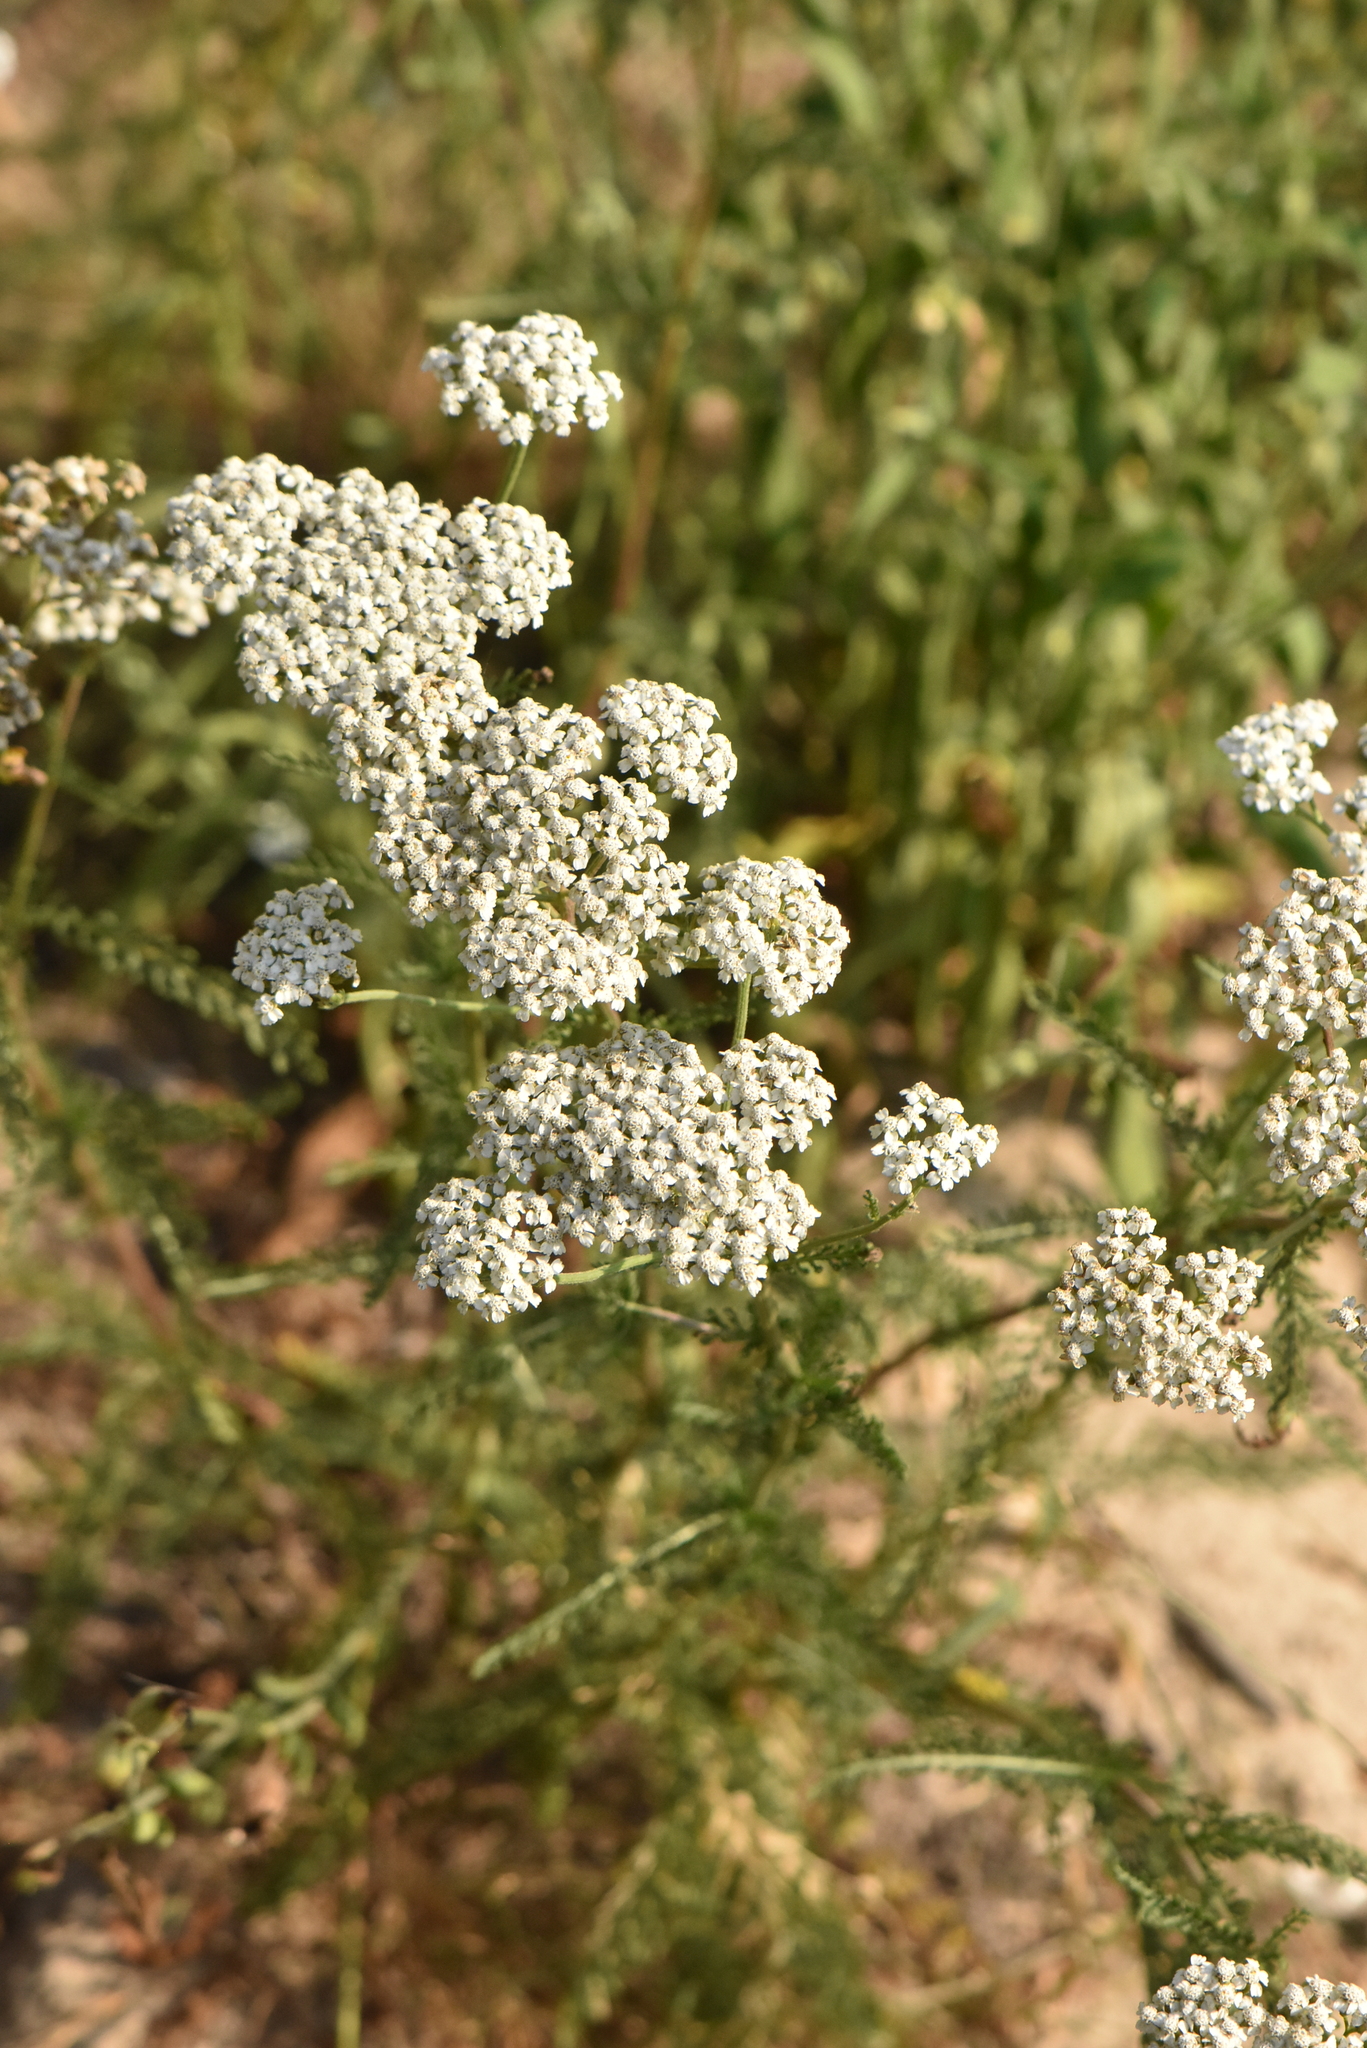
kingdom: Plantae
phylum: Tracheophyta
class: Magnoliopsida
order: Asterales
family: Asteraceae
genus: Achillea
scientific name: Achillea millefolium
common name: Yarrow
